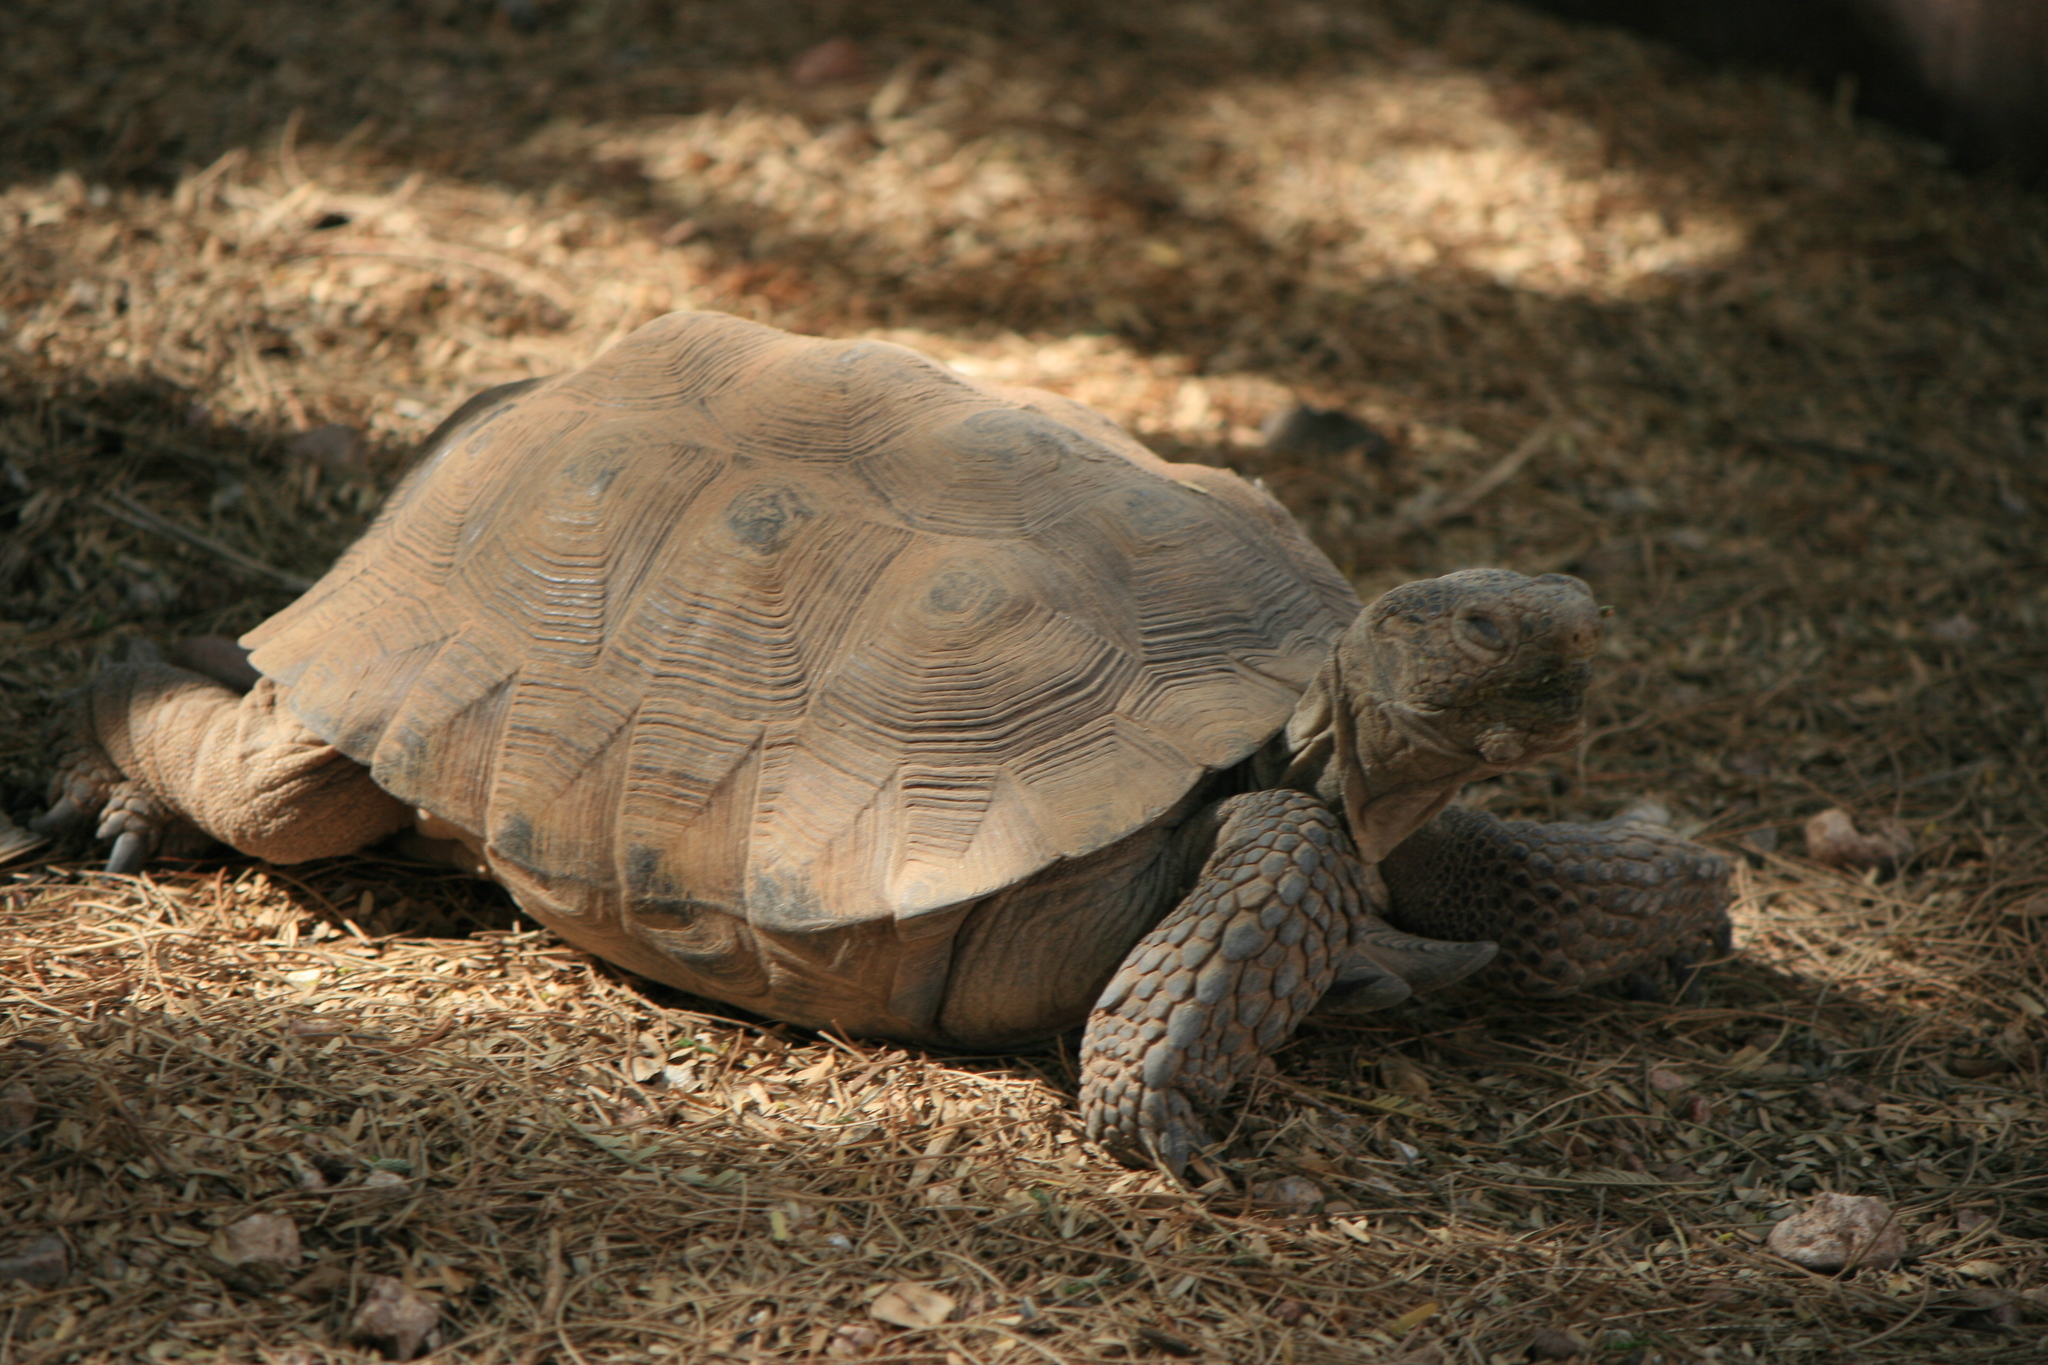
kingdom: Animalia
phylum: Chordata
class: Testudines
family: Testudinidae
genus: Gopherus
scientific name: Gopherus morafkai
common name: Sonoran desert tortoise
